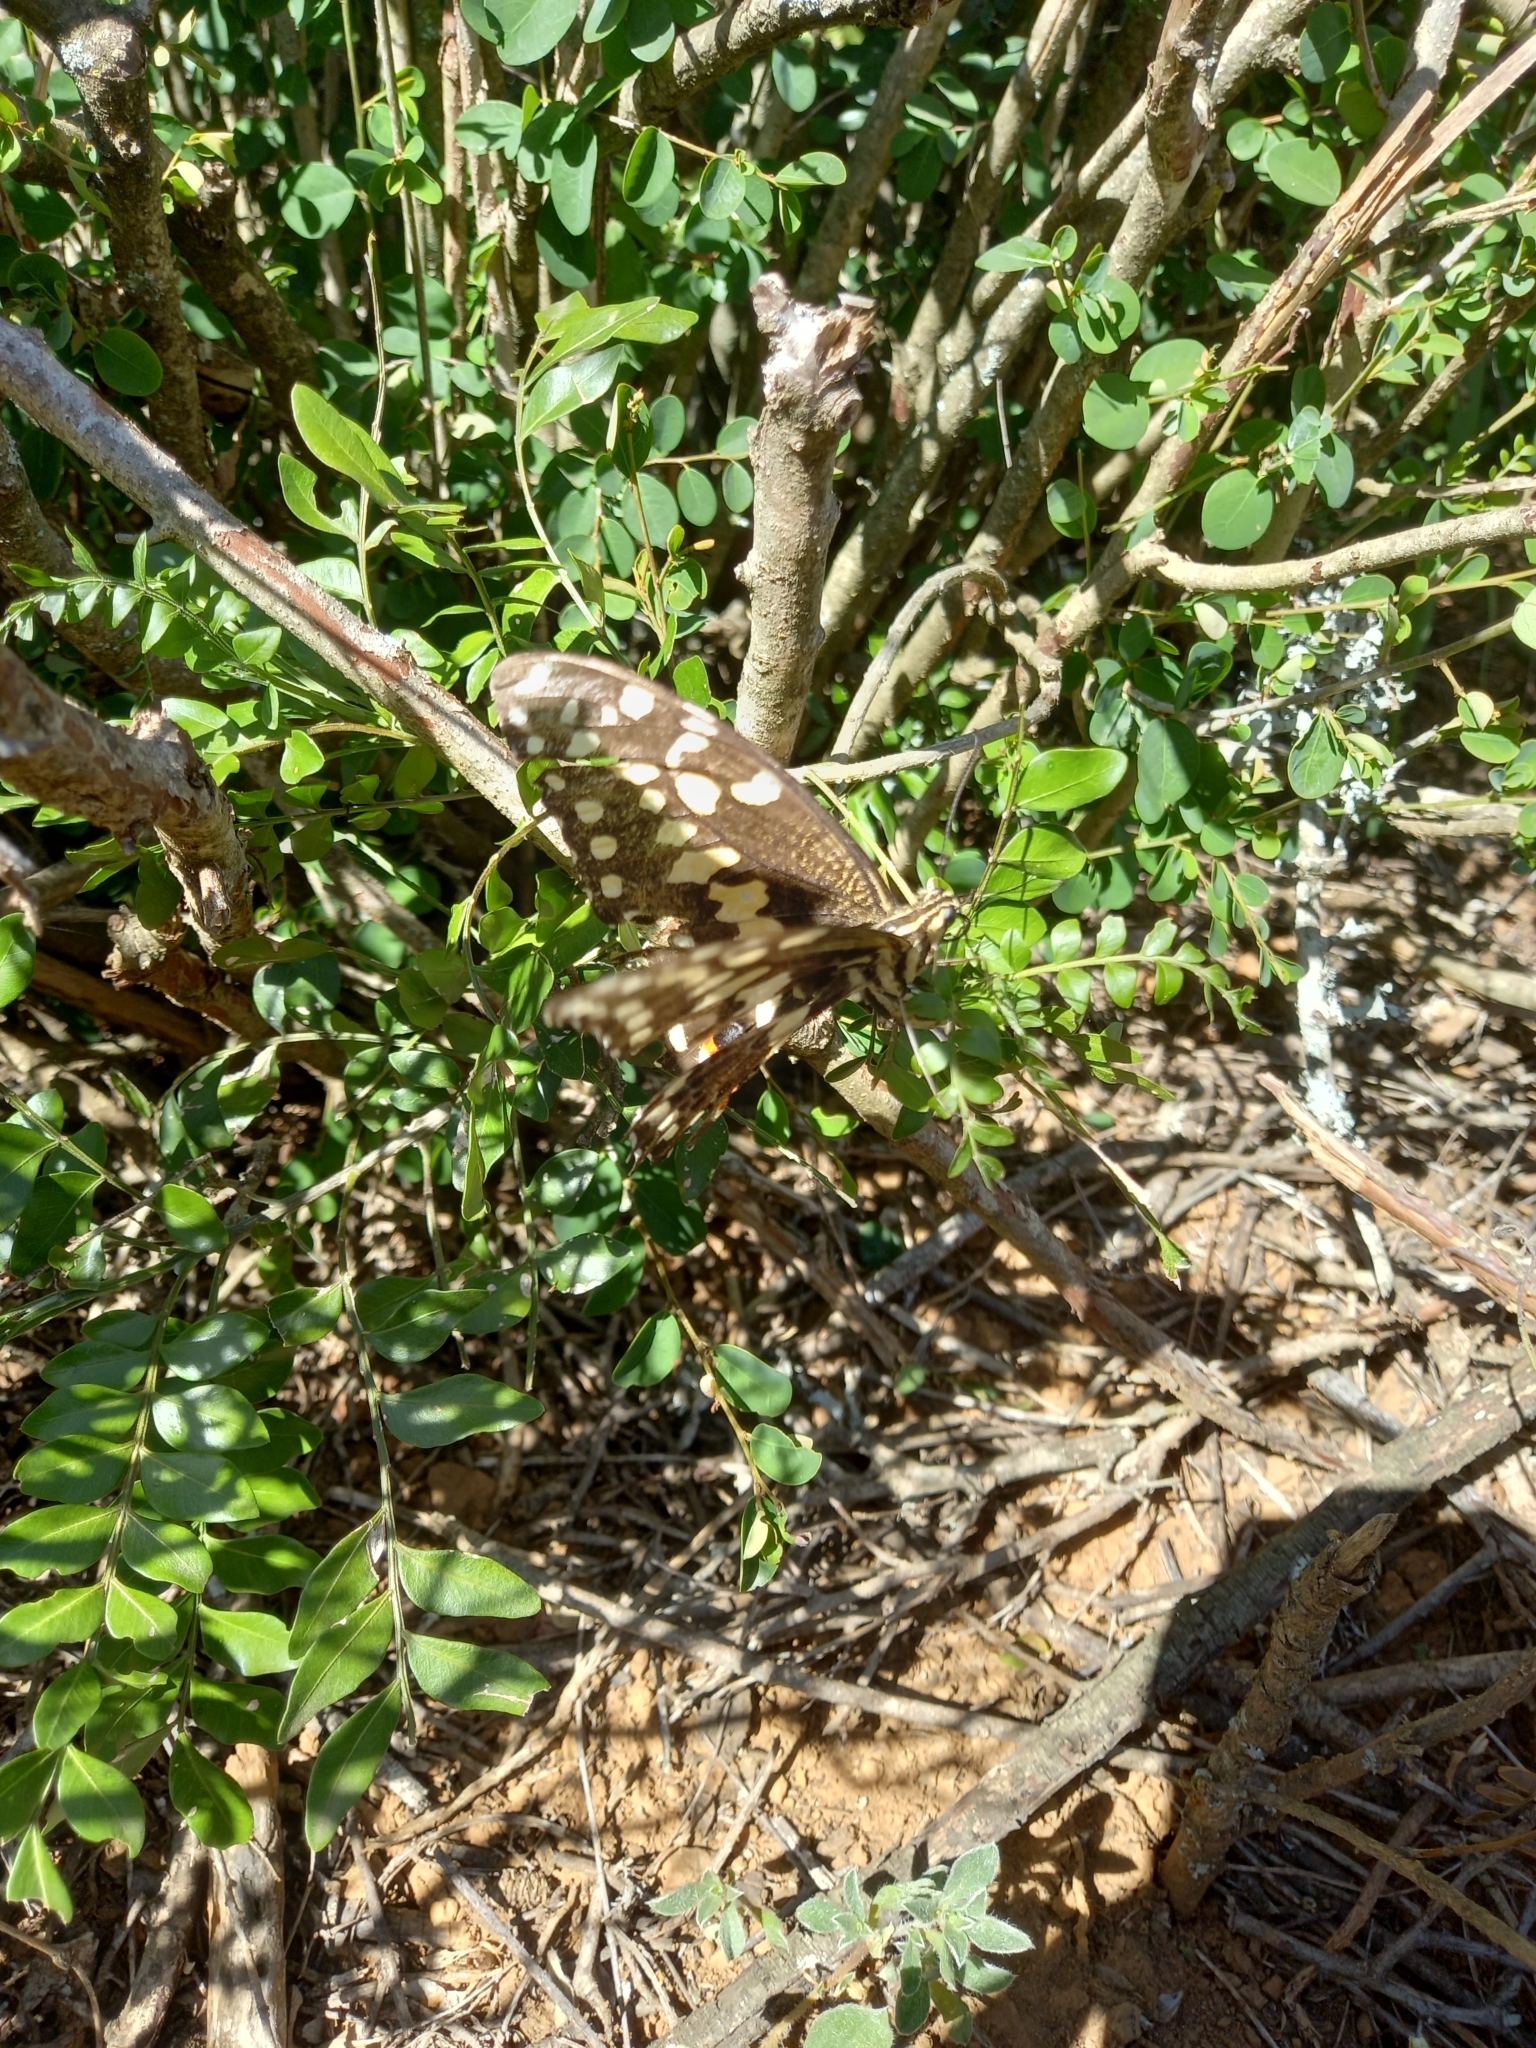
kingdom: Animalia
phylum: Arthropoda
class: Insecta
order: Lepidoptera
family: Papilionidae
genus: Papilio
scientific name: Papilio demodocus
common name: Christmas butterfly
